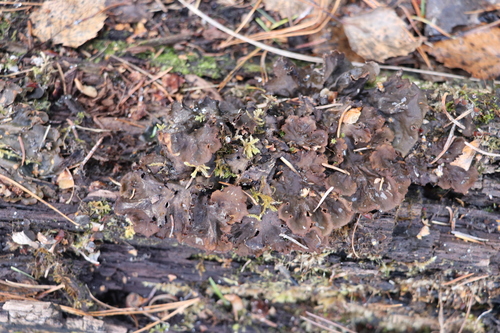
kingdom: Fungi
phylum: Ascomycota
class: Lecanoromycetes
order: Peltigerales
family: Peltigeraceae
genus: Peltigera
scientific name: Peltigera
